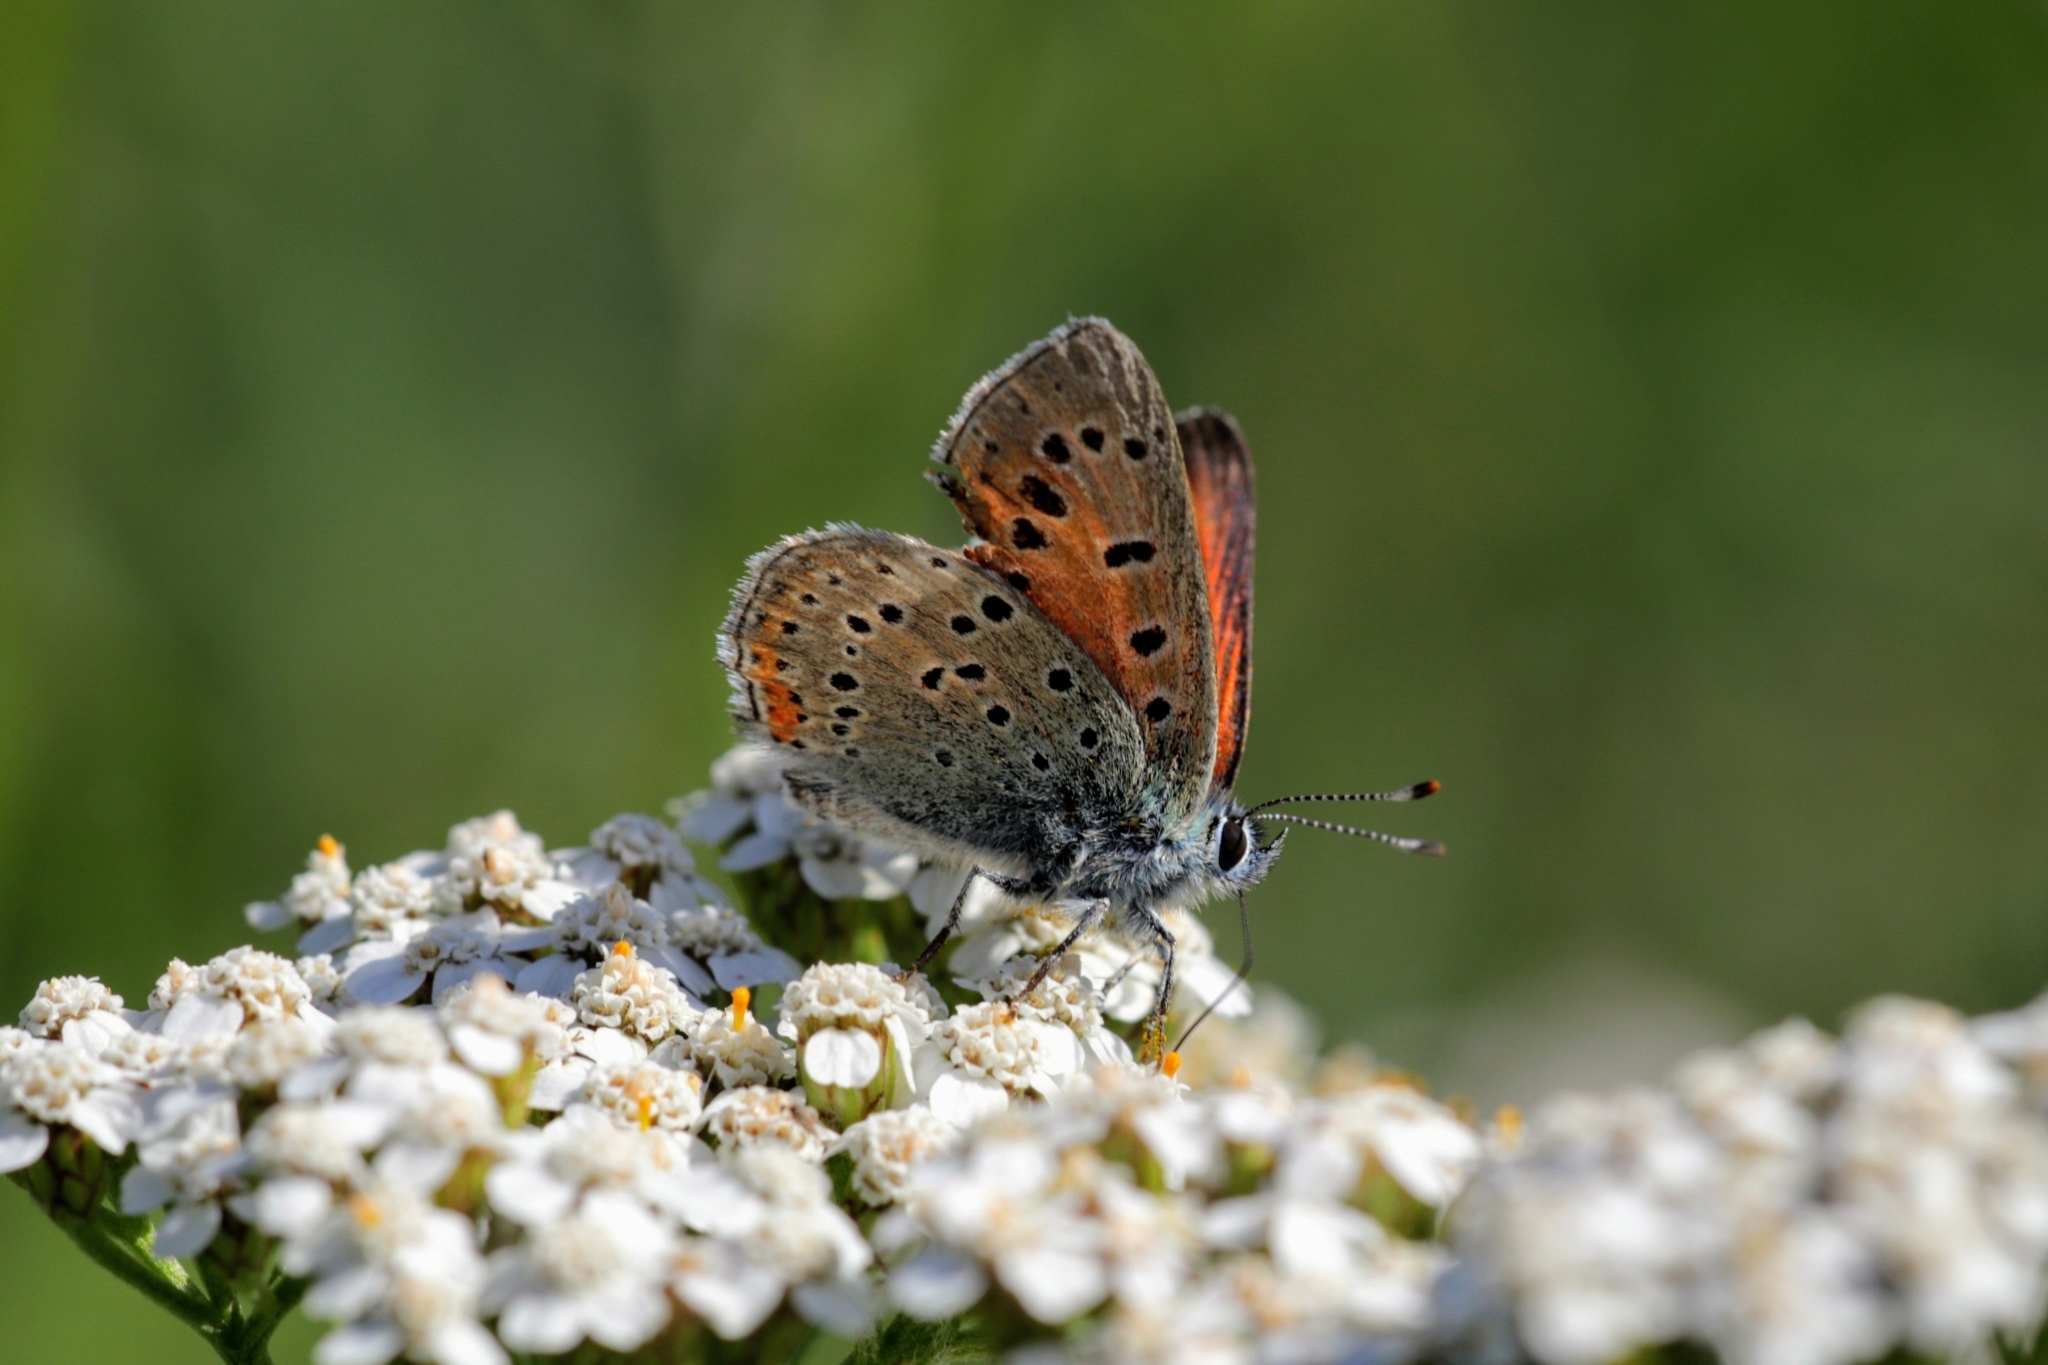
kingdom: Animalia
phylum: Arthropoda
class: Insecta
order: Lepidoptera
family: Lycaenidae
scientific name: Lycaenidae
